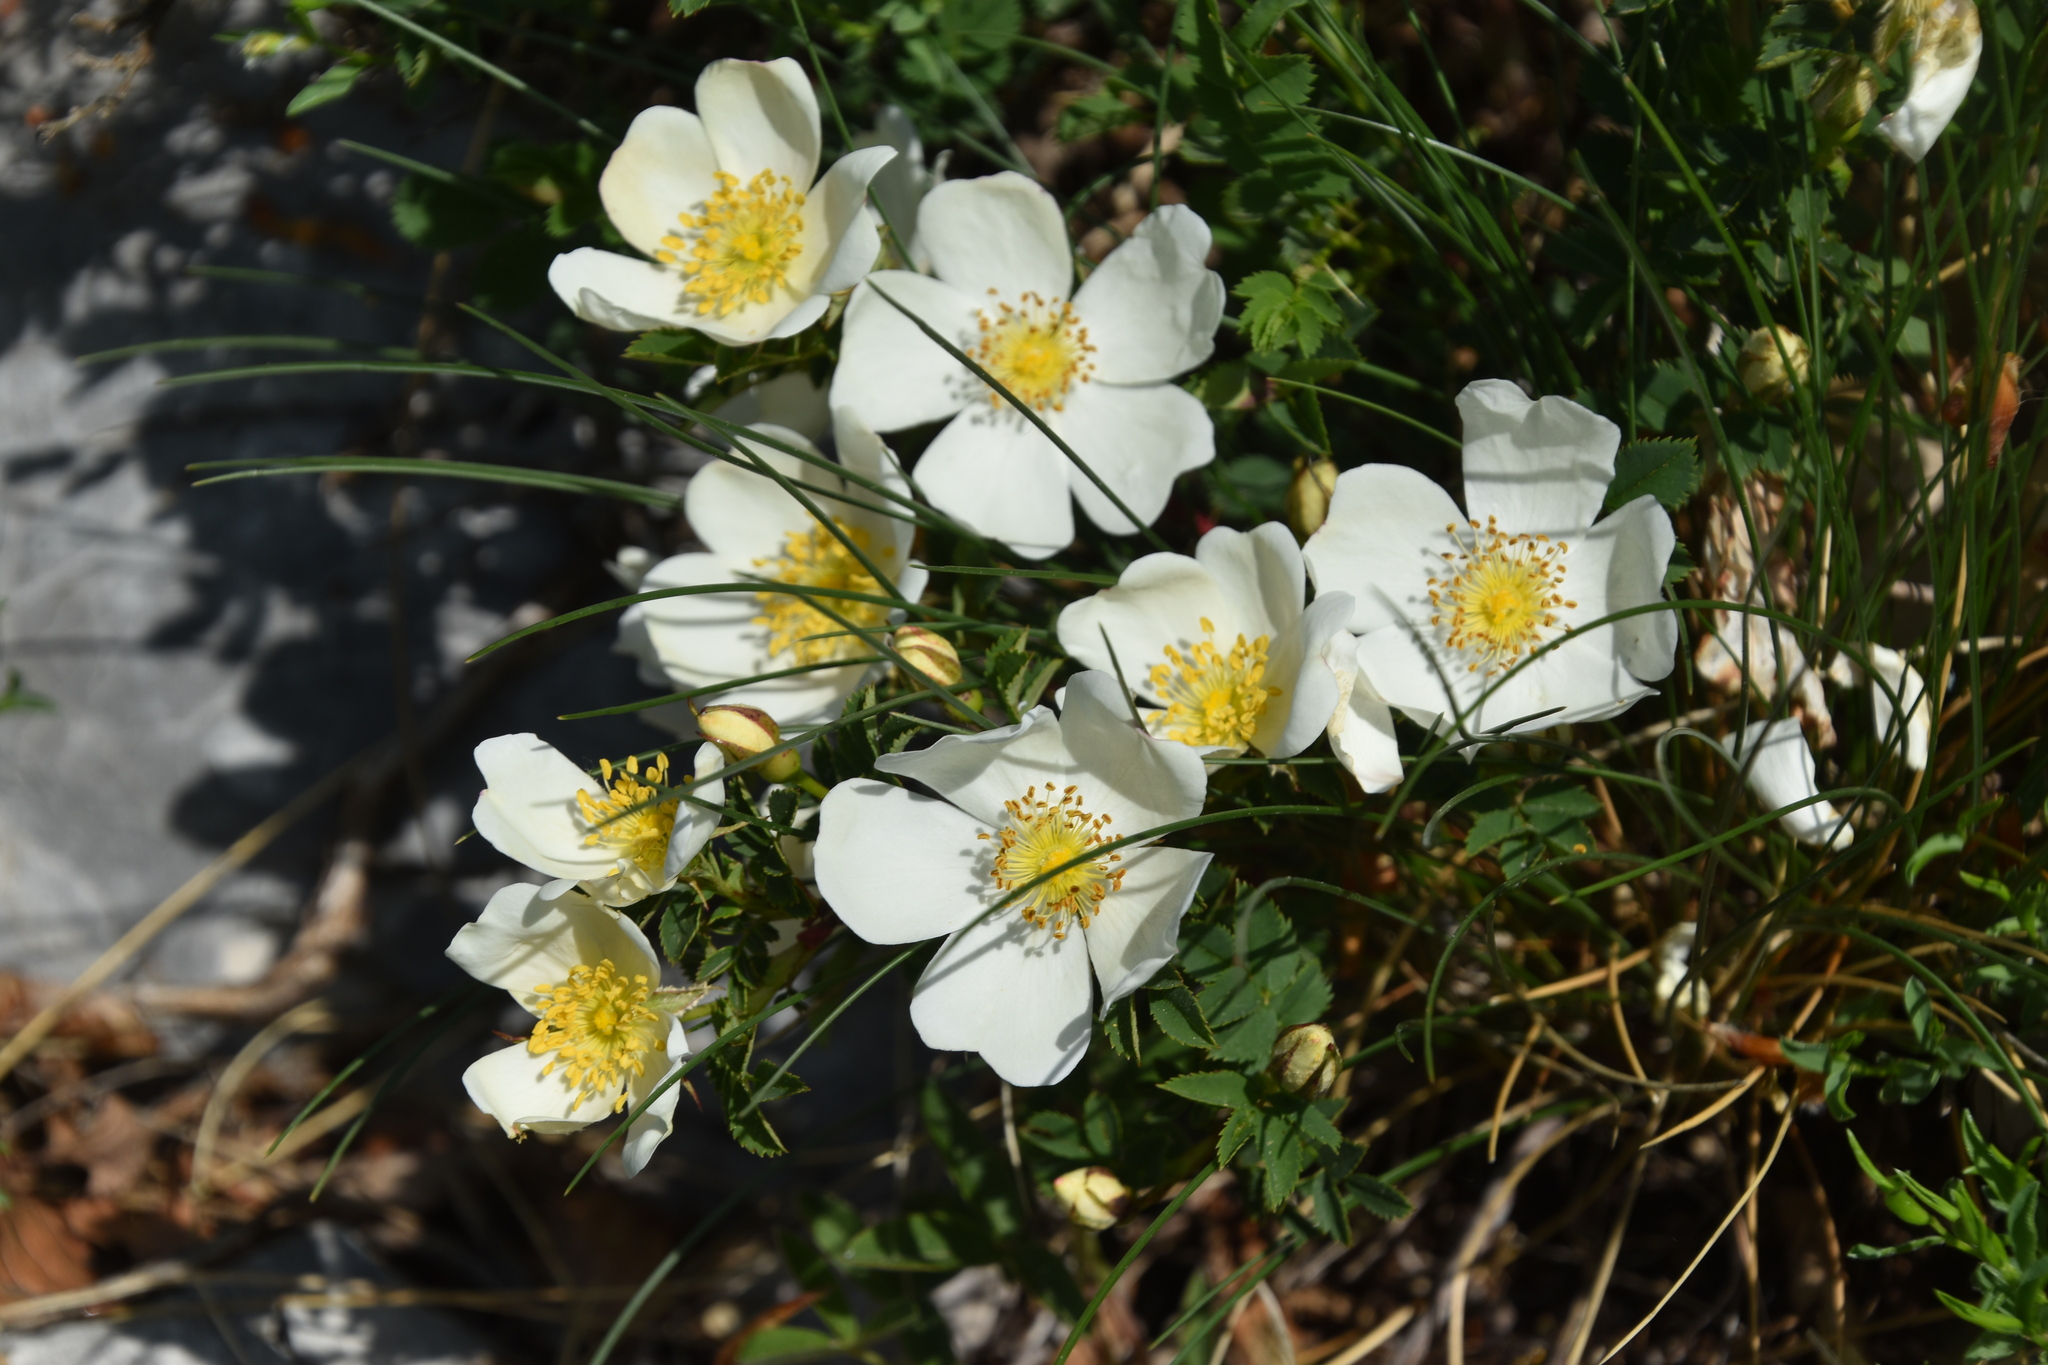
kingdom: Plantae
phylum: Tracheophyta
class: Magnoliopsida
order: Rosales
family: Rosaceae
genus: Rosa
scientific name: Rosa spinosissima
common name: Burnet rose
